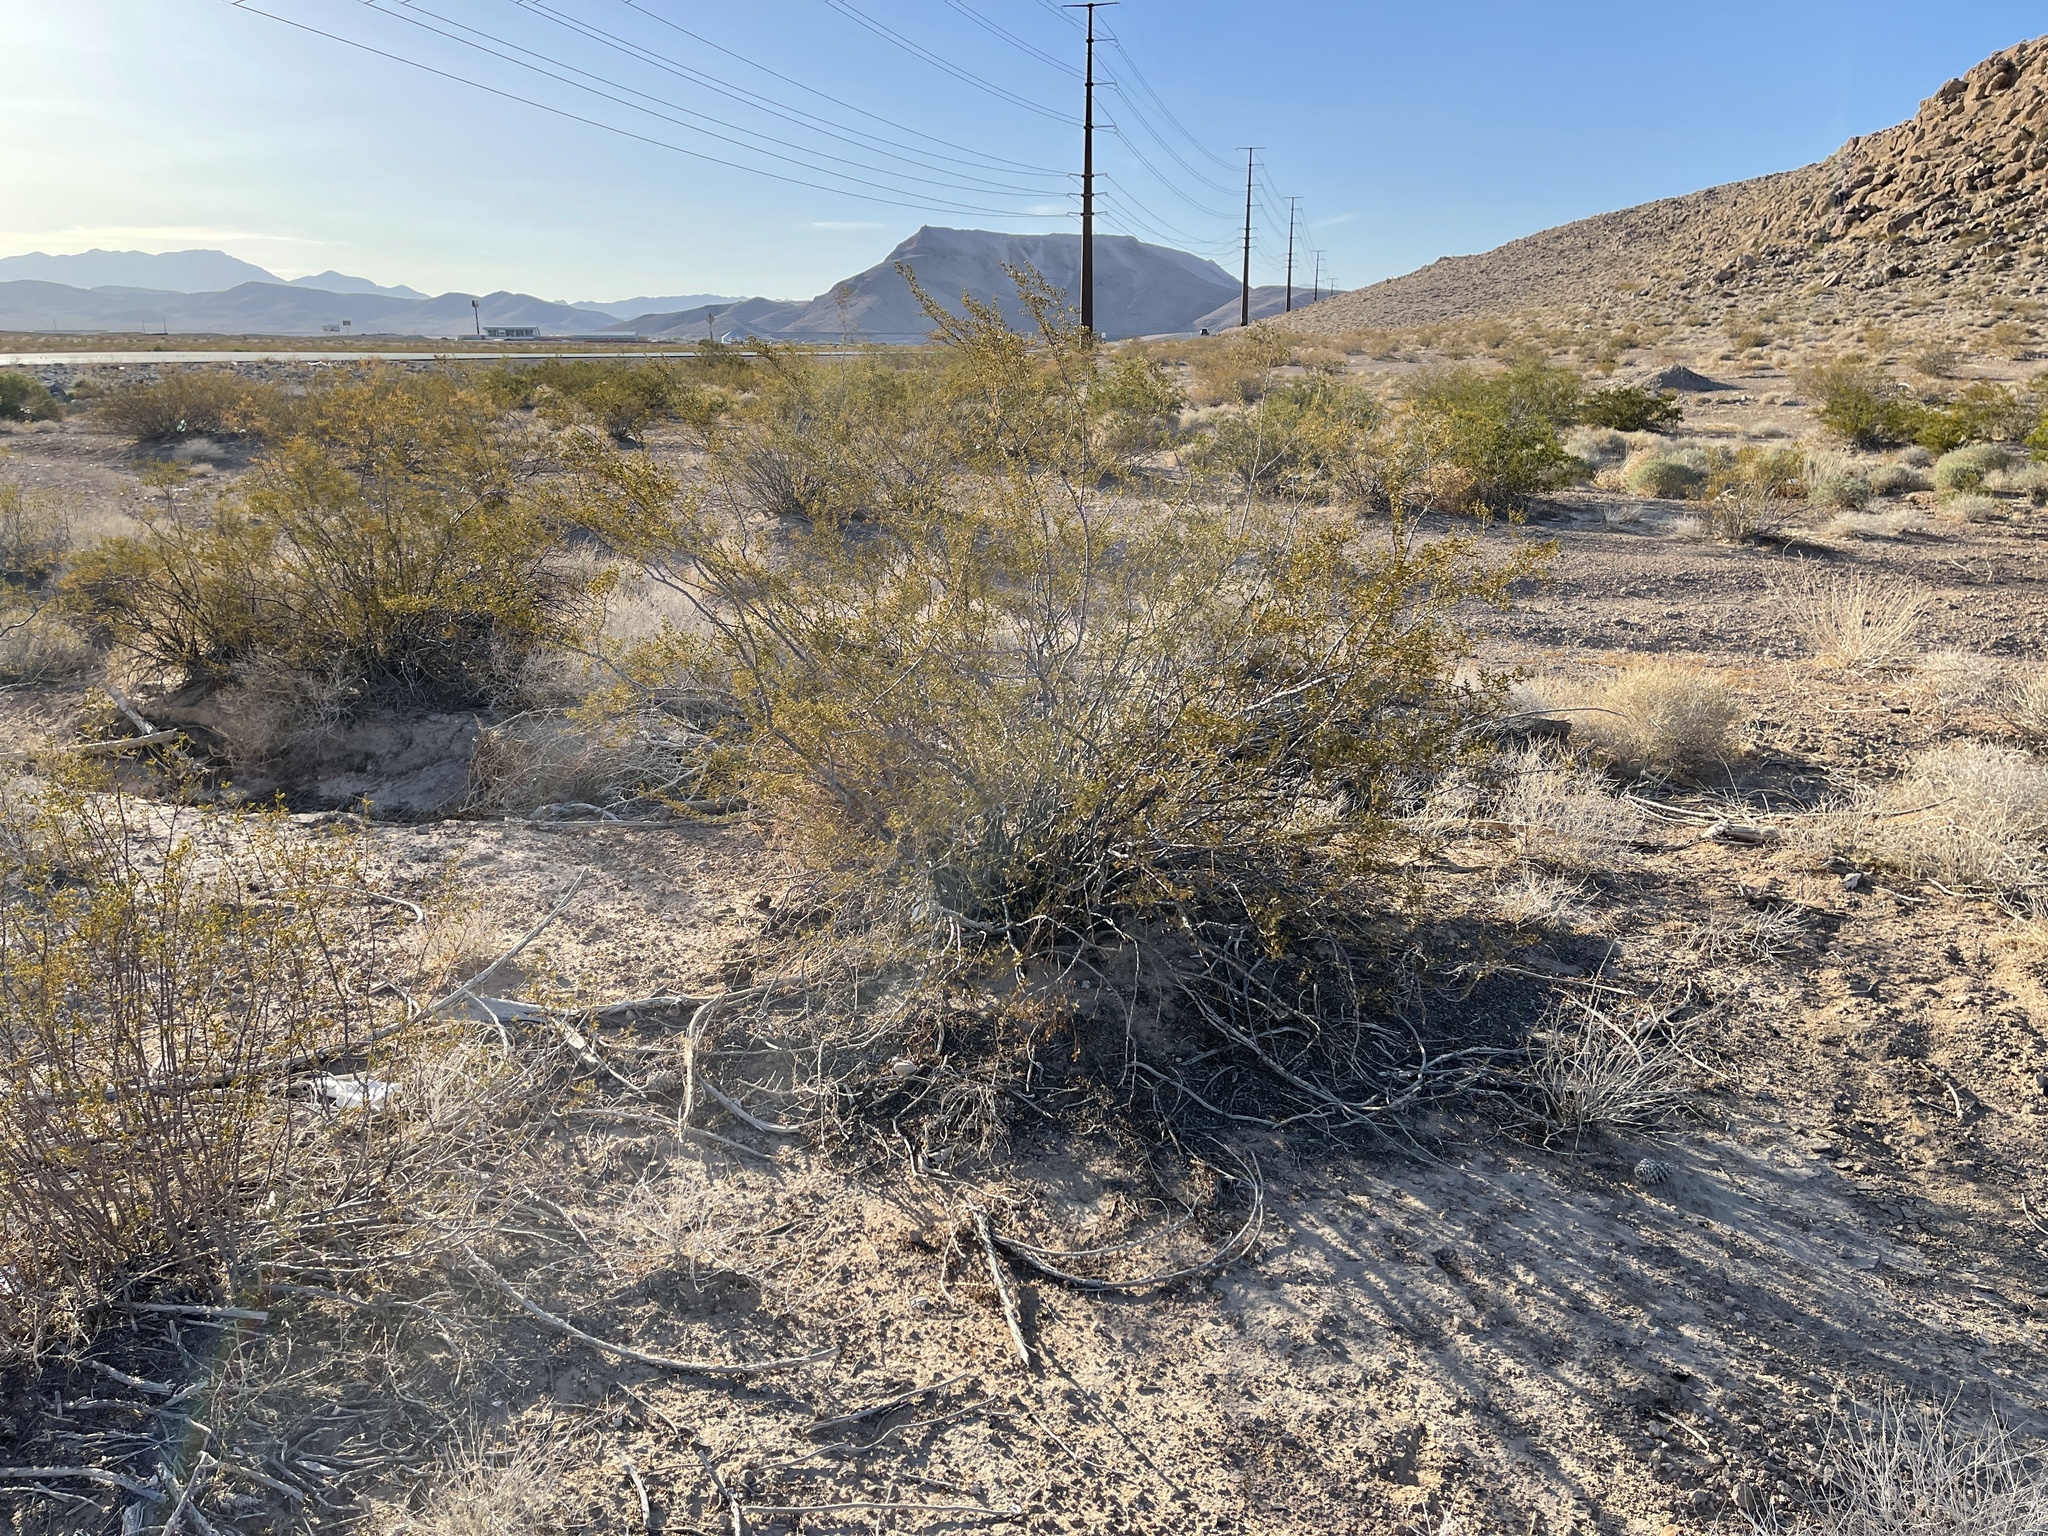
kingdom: Plantae
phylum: Tracheophyta
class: Magnoliopsida
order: Zygophyllales
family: Zygophyllaceae
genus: Larrea
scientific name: Larrea tridentata
